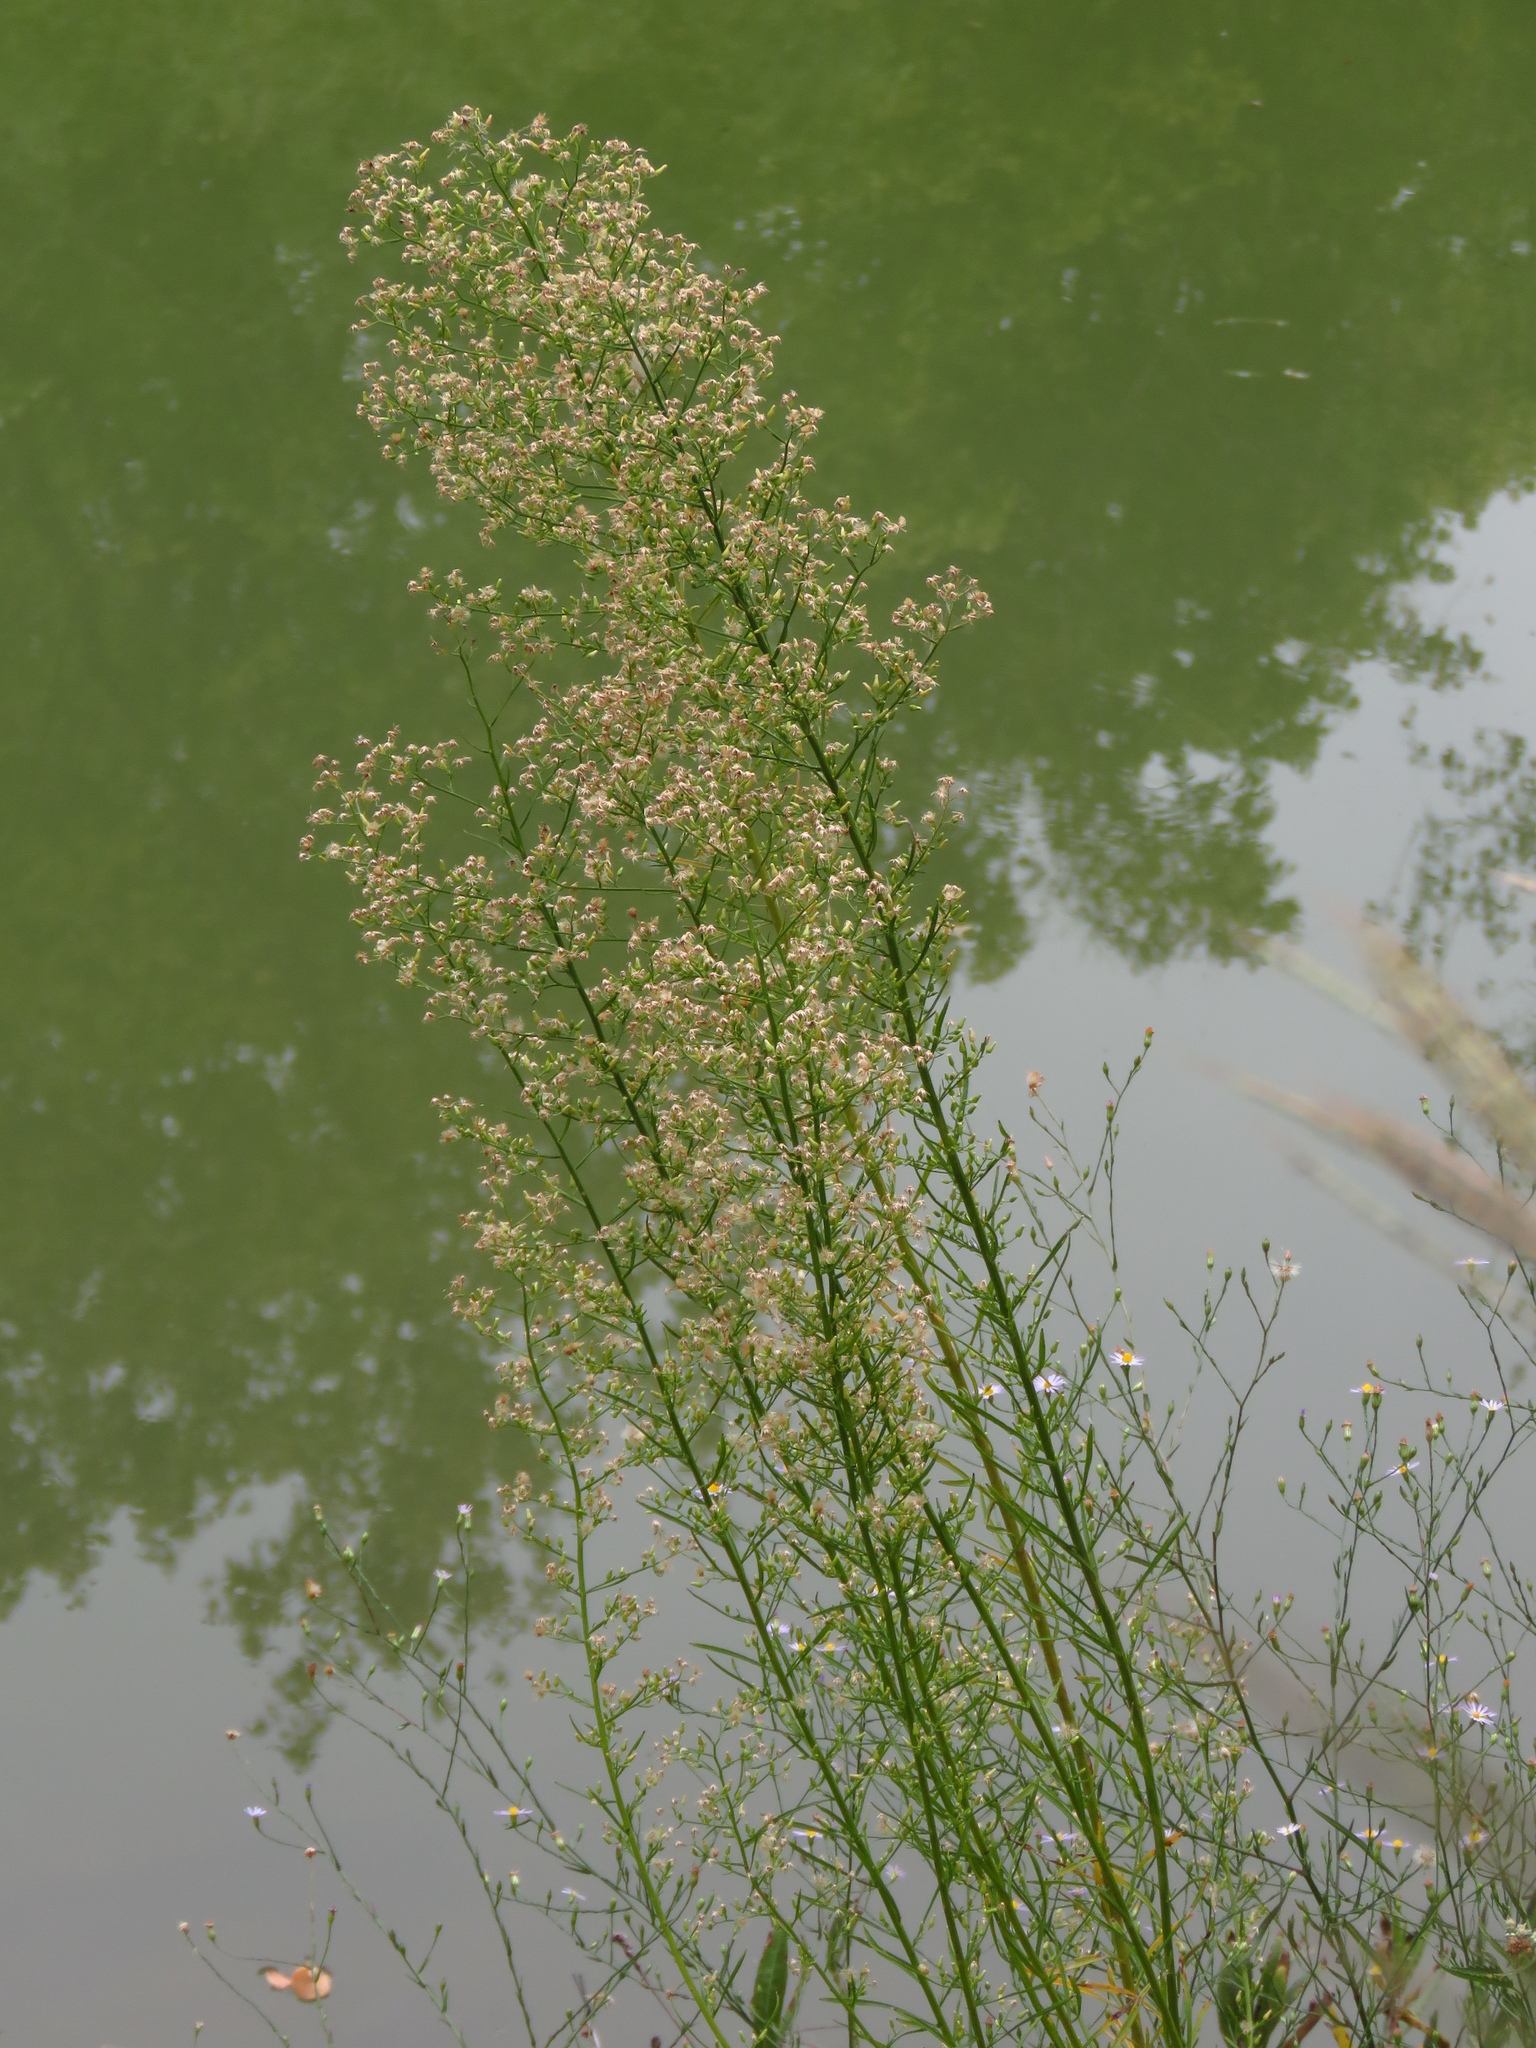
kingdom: Plantae
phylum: Tracheophyta
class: Magnoliopsida
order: Asterales
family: Asteraceae
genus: Erigeron
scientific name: Erigeron canadensis
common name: Canadian fleabane
